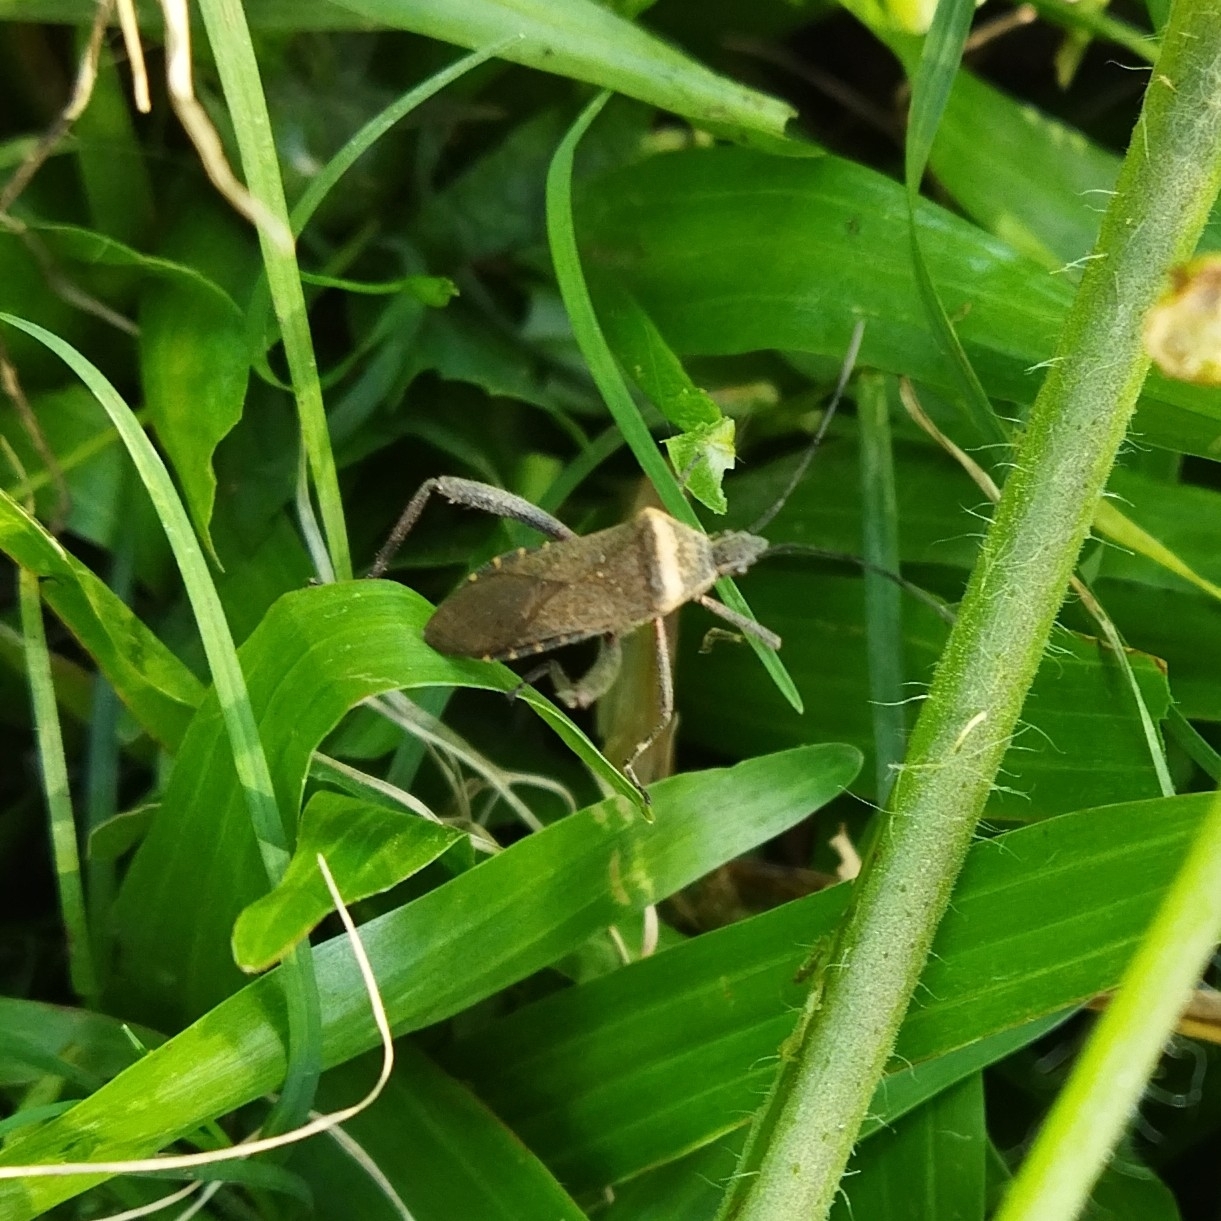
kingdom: Animalia
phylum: Arthropoda
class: Insecta
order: Hemiptera
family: Coreidae
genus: Phthiacnemia
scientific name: Phthiacnemia picta
